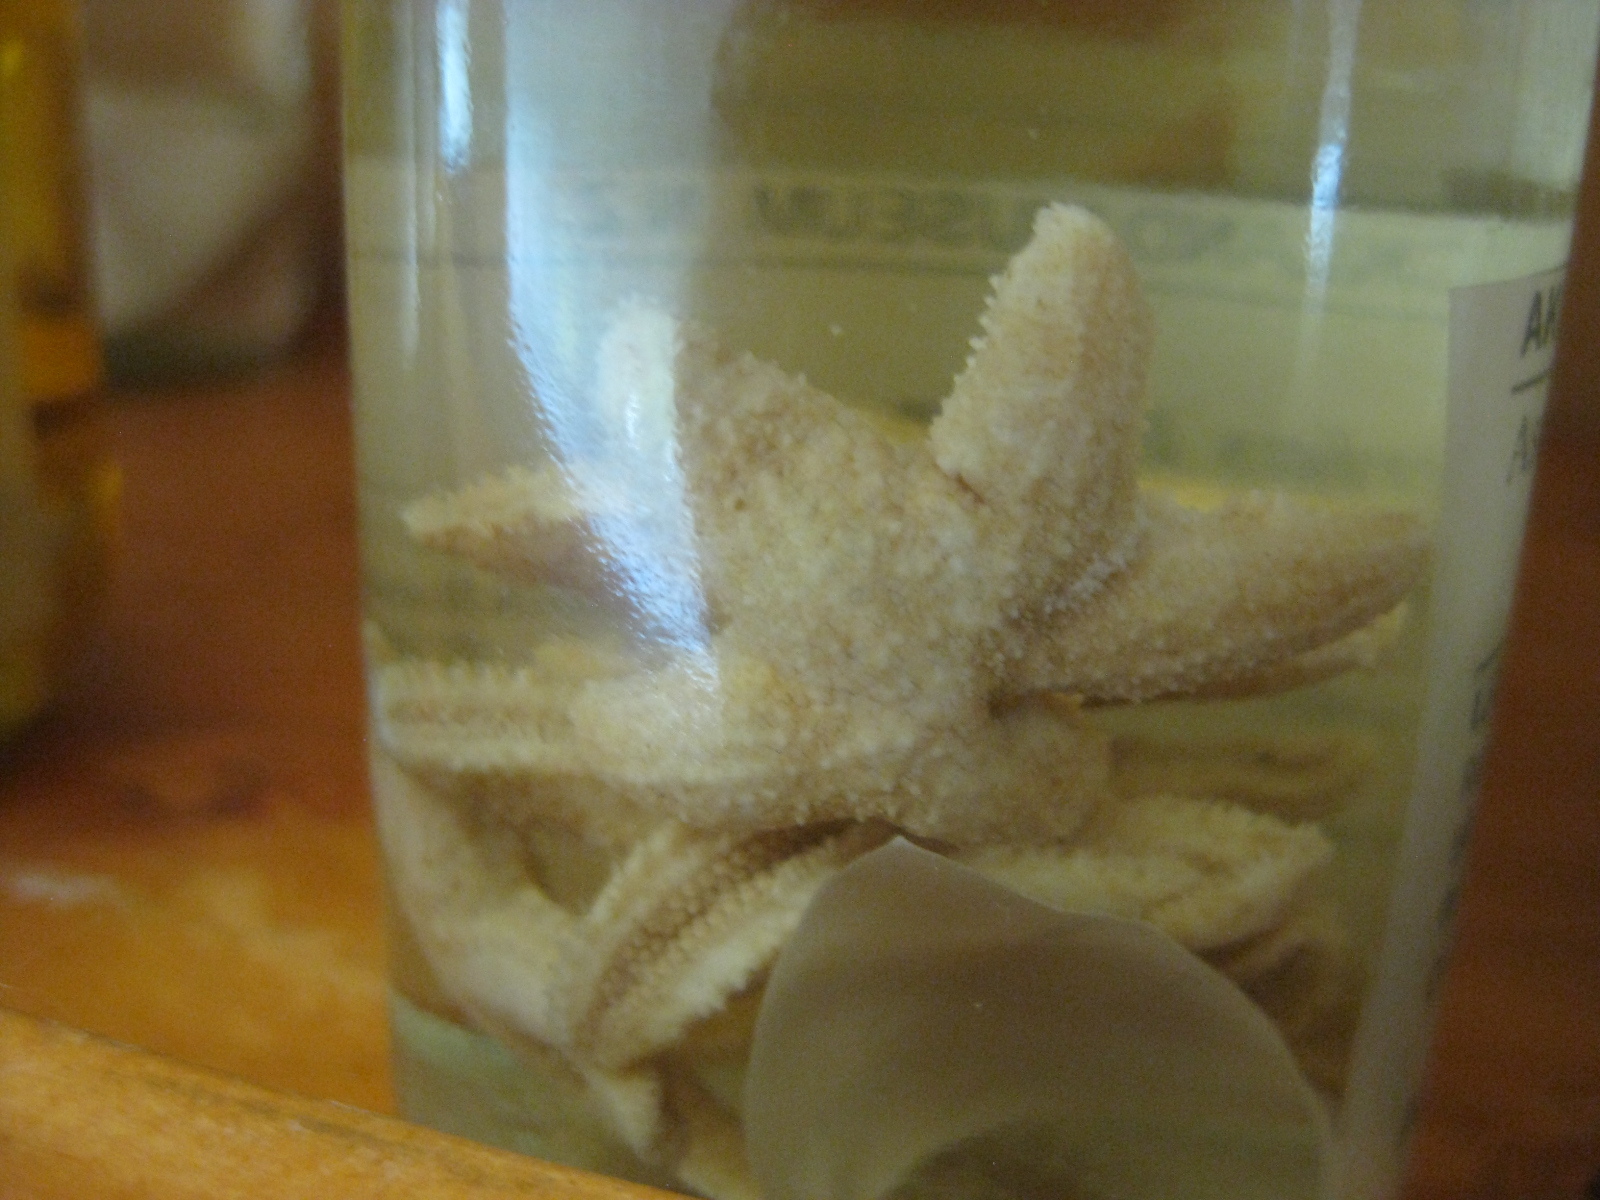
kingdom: Animalia
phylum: Echinodermata
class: Asteroidea
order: Forcipulatida
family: Asteriidae
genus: Anasterias
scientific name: Anasterias laevigata
